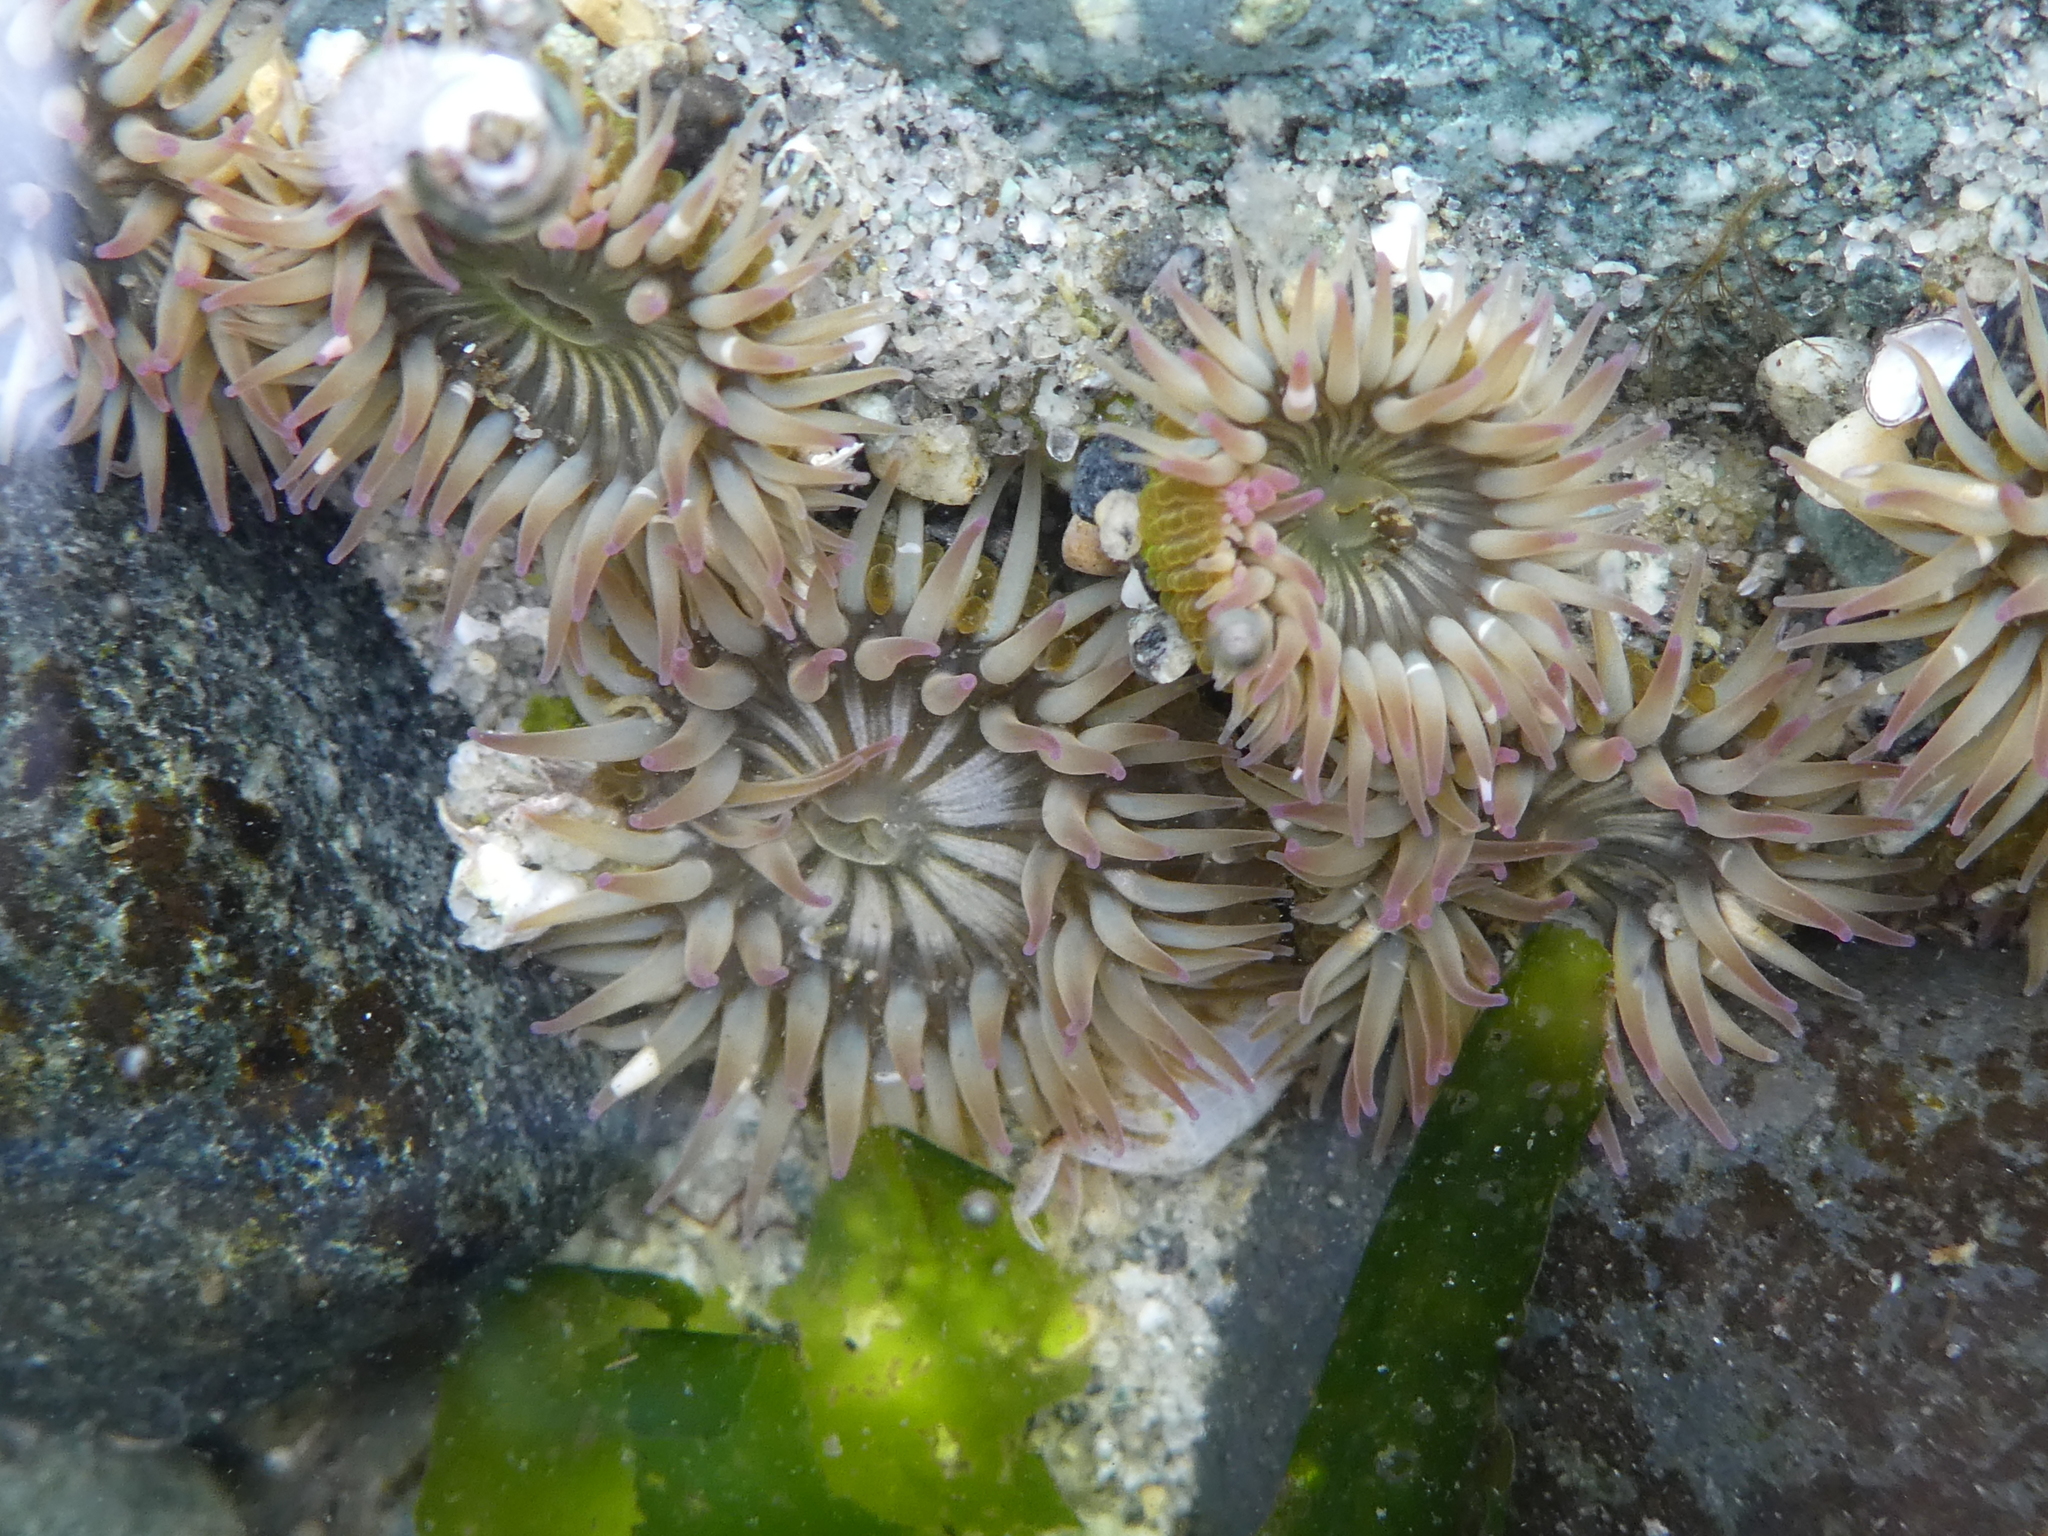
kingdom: Animalia
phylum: Cnidaria
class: Anthozoa
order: Actiniaria
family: Actiniidae
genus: Anthopleura
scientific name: Anthopleura elegantissima
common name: Clonal anemone
